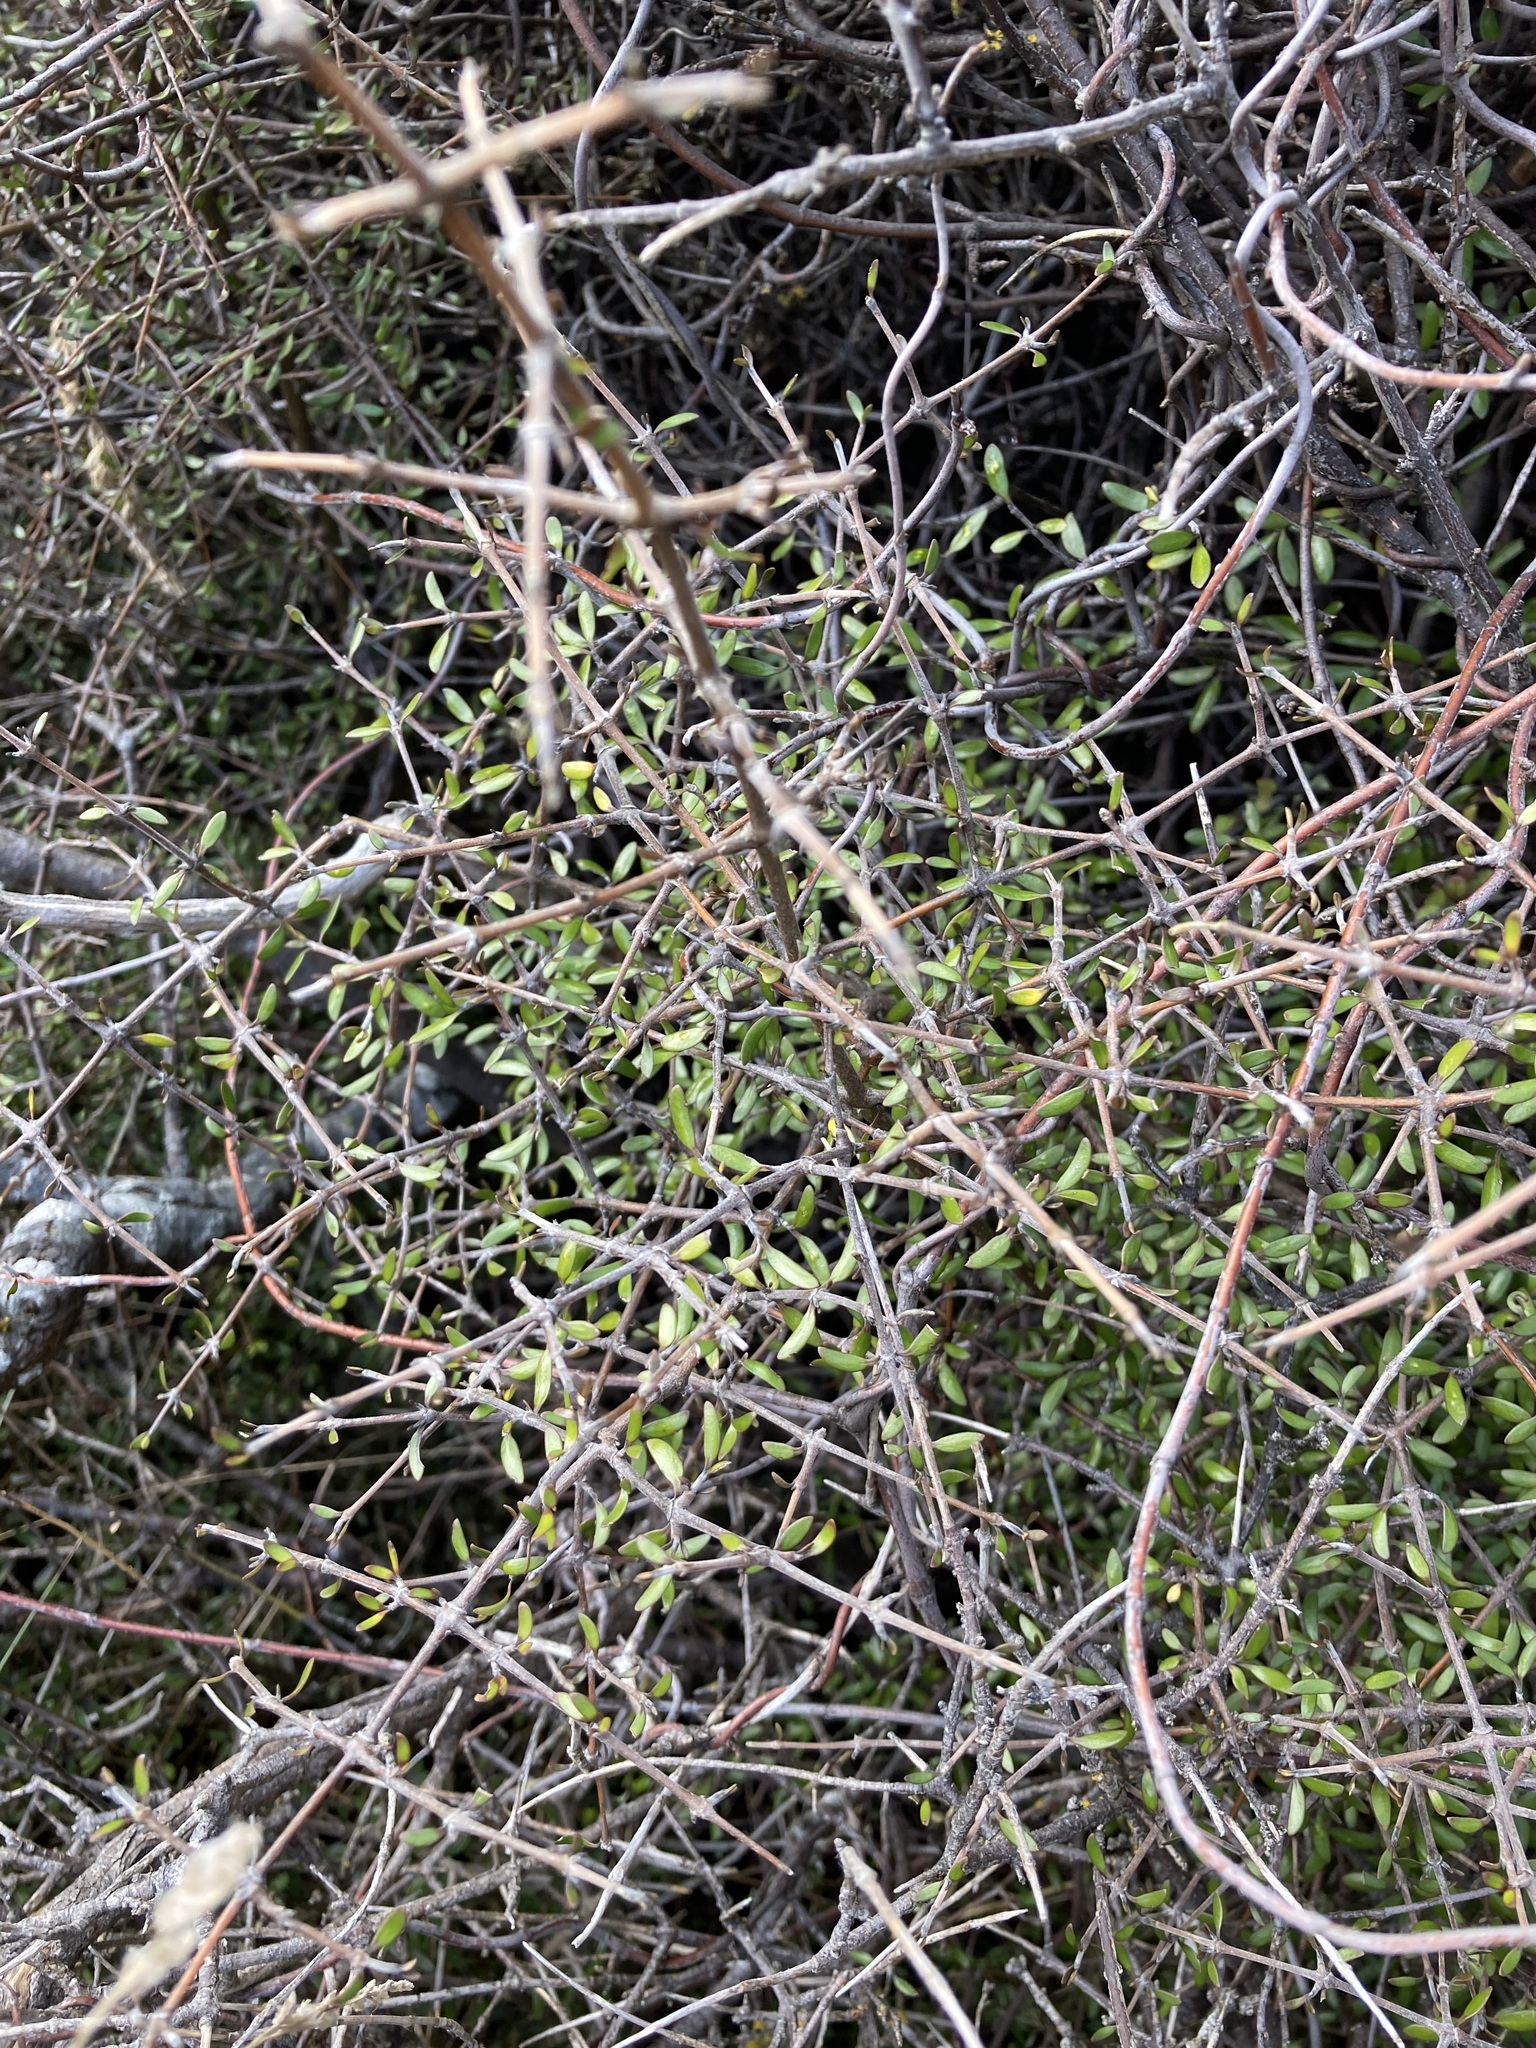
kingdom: Plantae
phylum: Tracheophyta
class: Magnoliopsida
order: Gentianales
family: Rubiaceae
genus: Coprosma
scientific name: Coprosma propinqua
